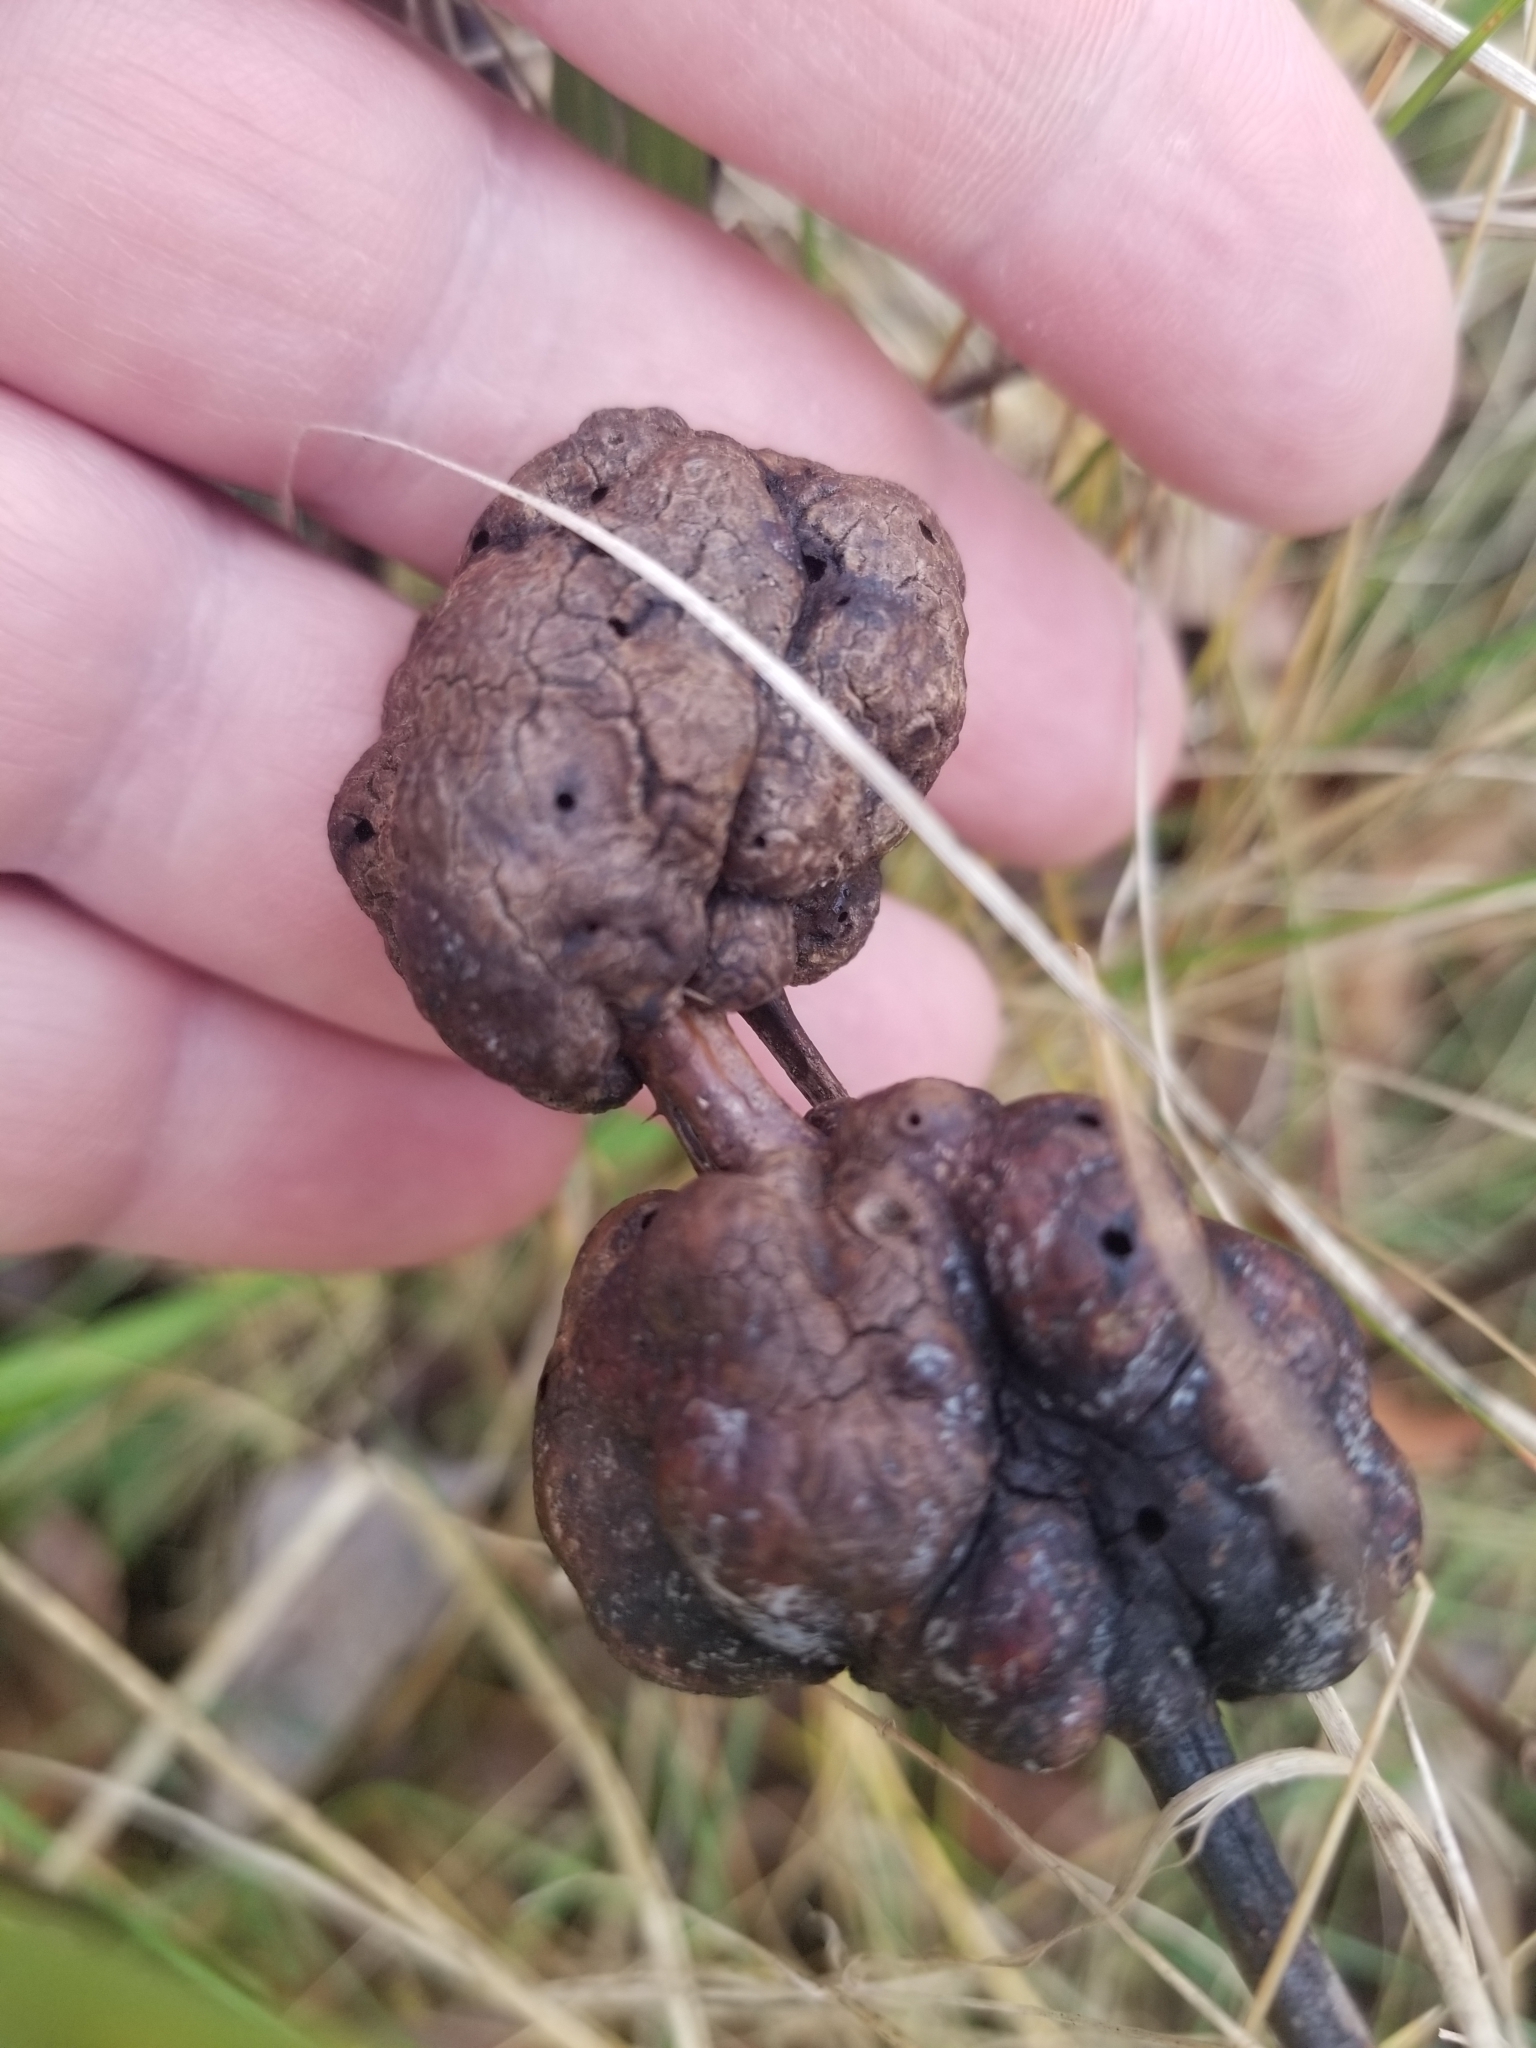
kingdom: Animalia
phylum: Arthropoda
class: Insecta
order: Hymenoptera
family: Cynipidae
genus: Diastrophus
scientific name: Diastrophus
